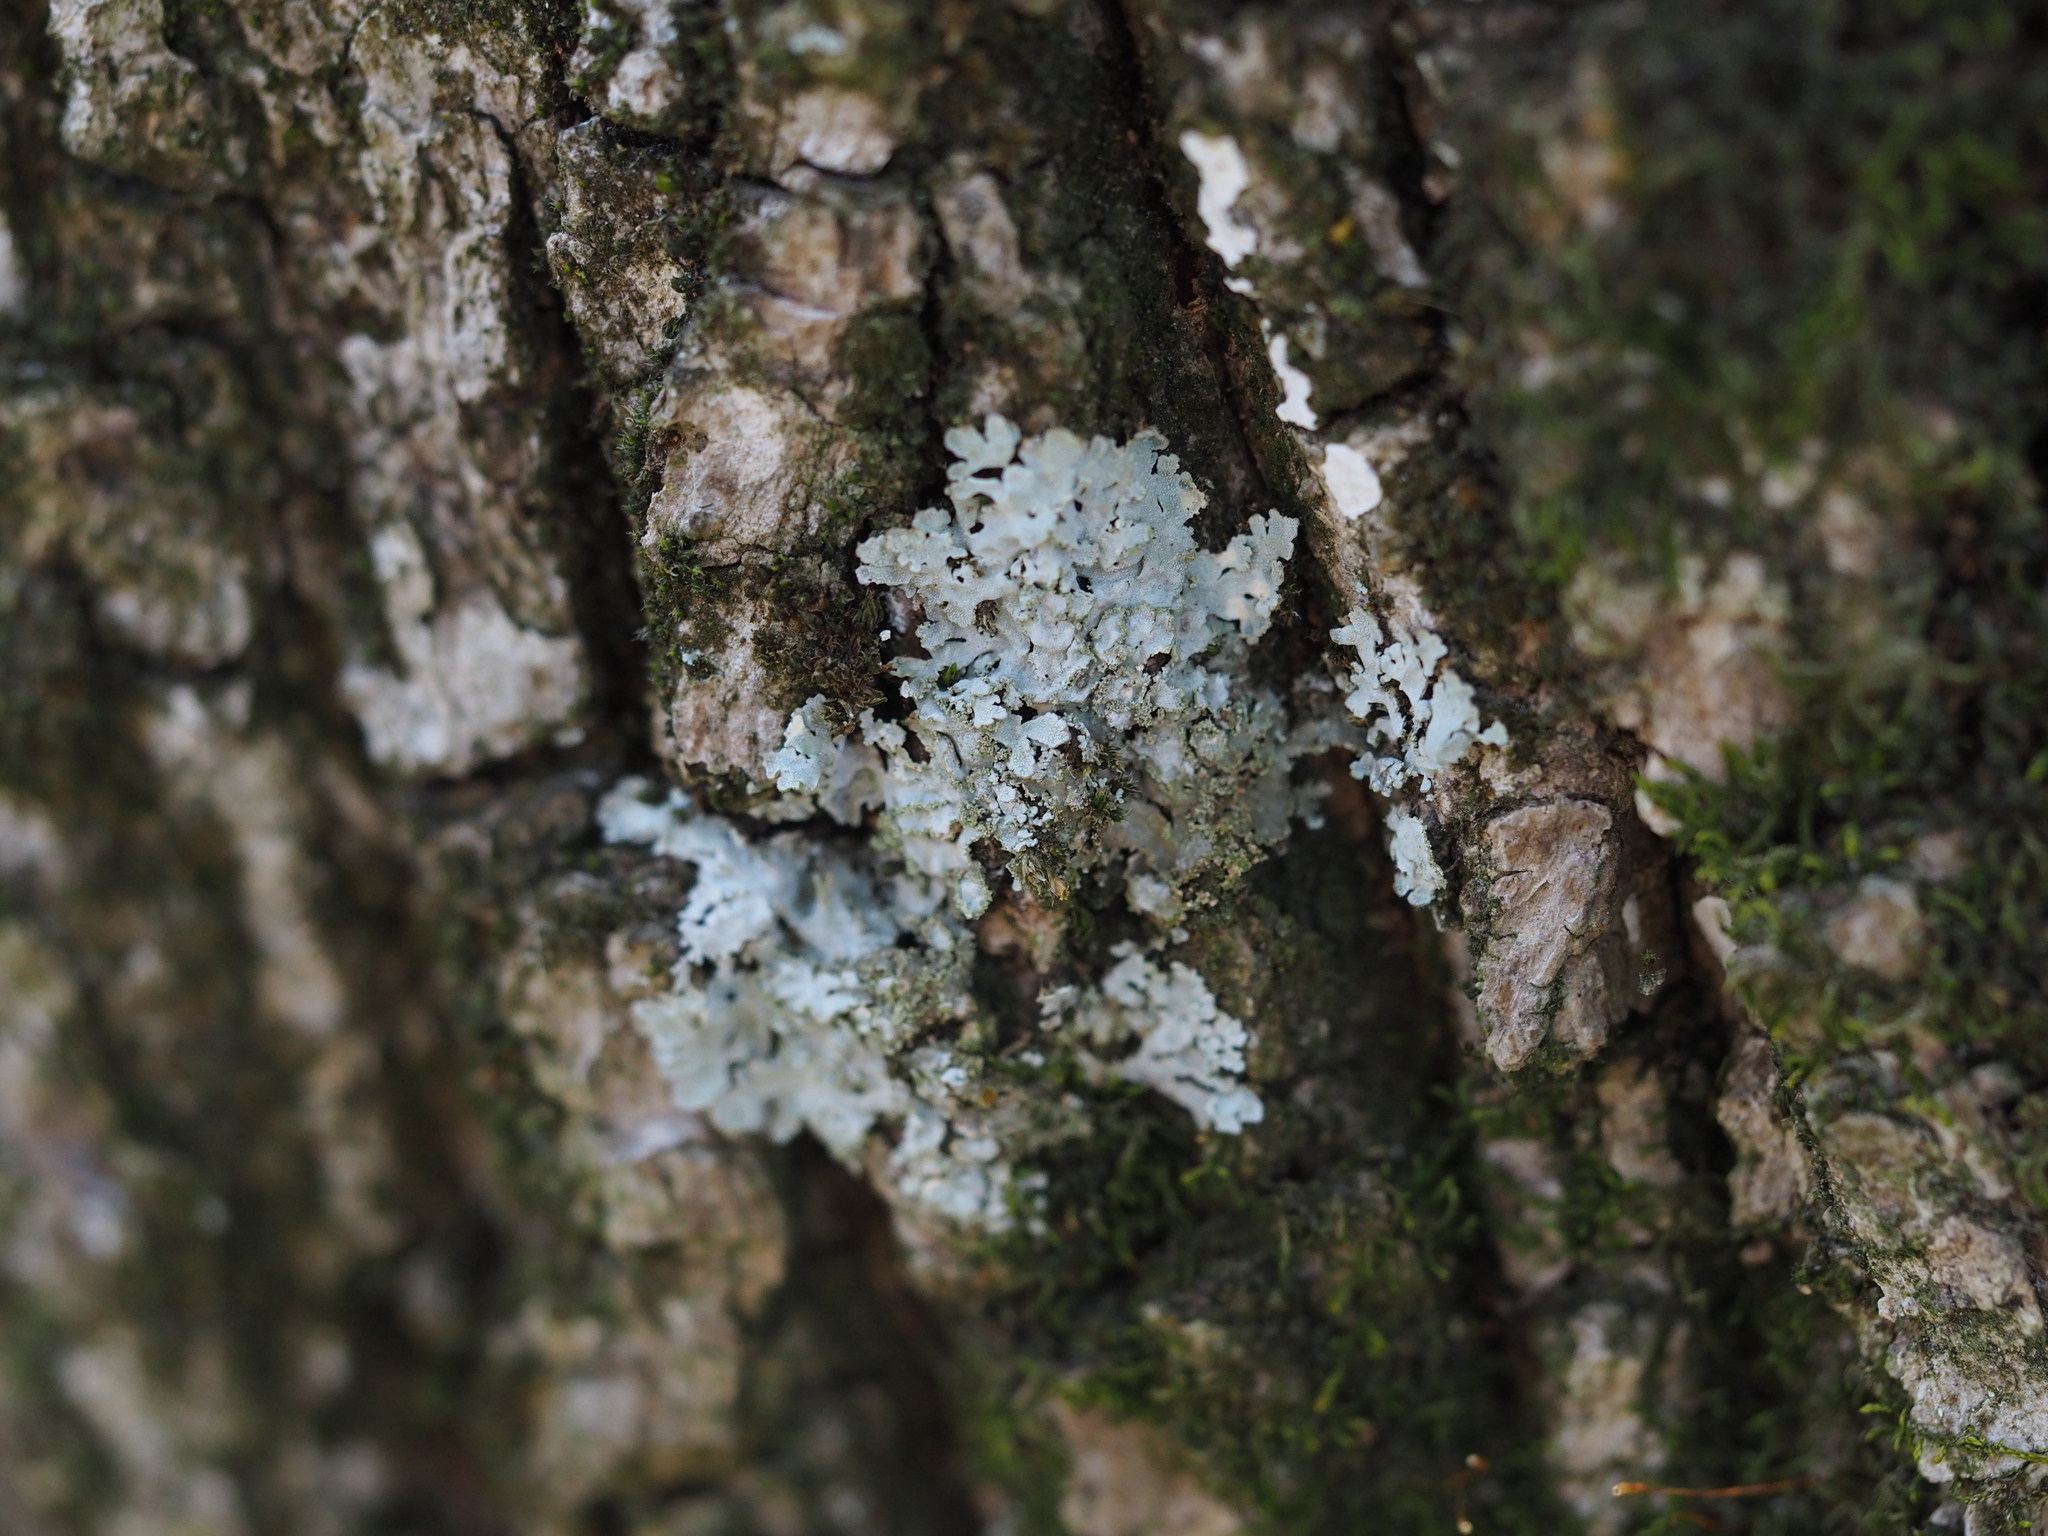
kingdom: Fungi
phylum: Ascomycota
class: Lecanoromycetes
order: Caliciales
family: Physciaceae
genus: Poeltonia
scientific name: Poeltonia grisea
